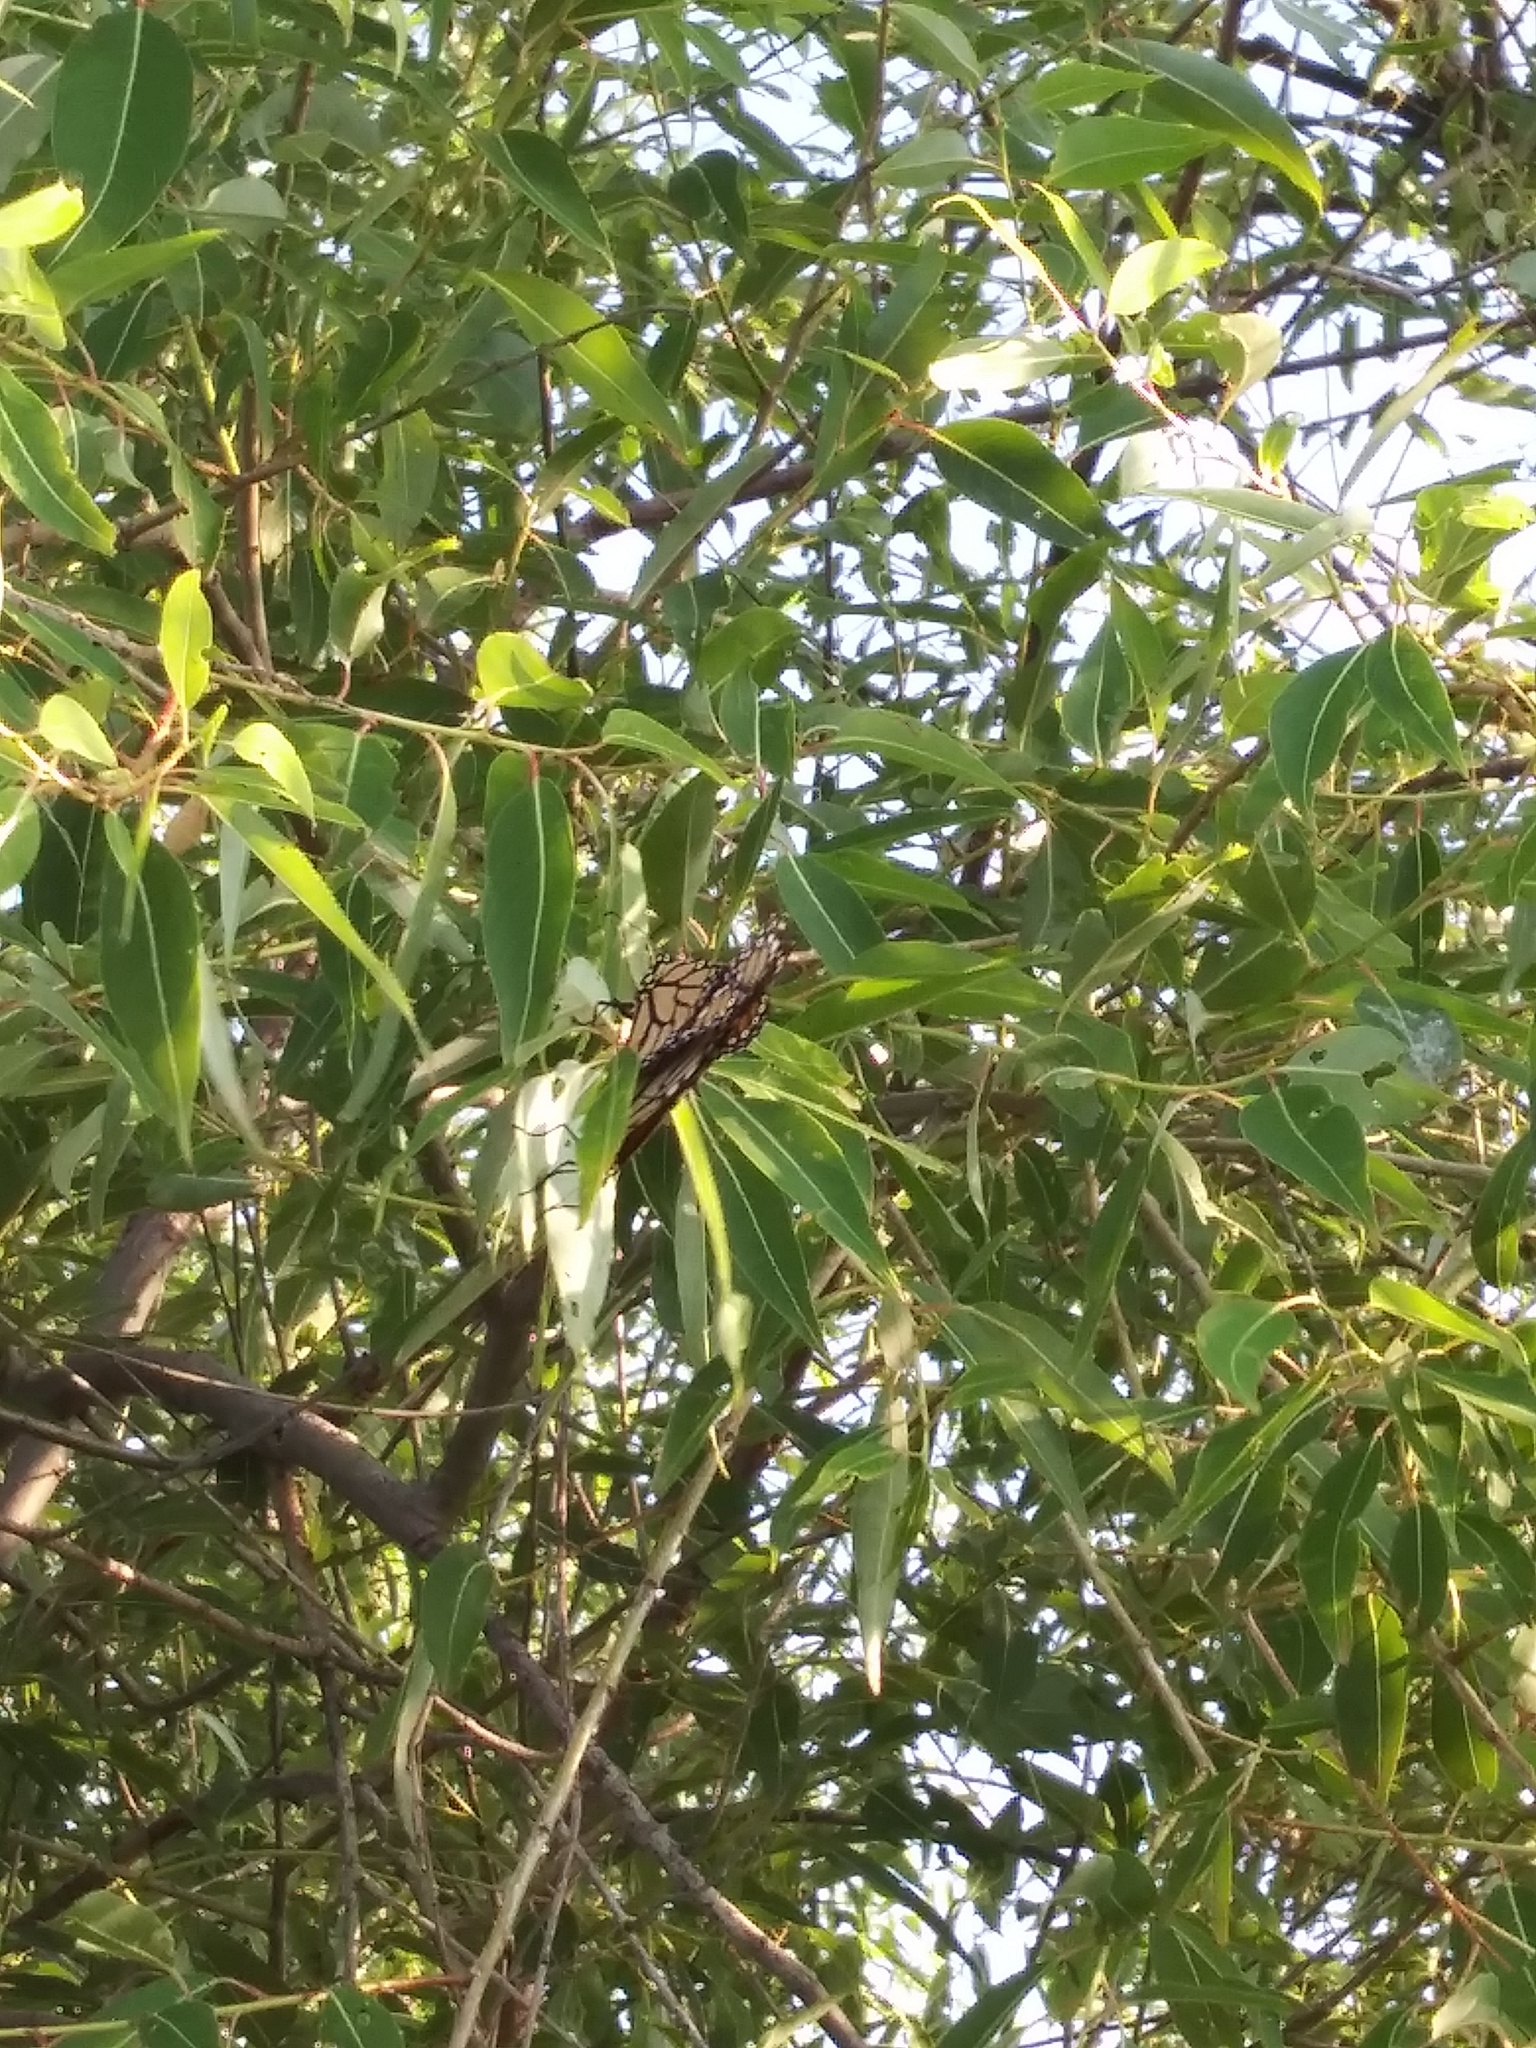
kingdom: Animalia
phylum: Arthropoda
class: Insecta
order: Lepidoptera
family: Nymphalidae
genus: Danaus
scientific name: Danaus plexippus
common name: Monarch
